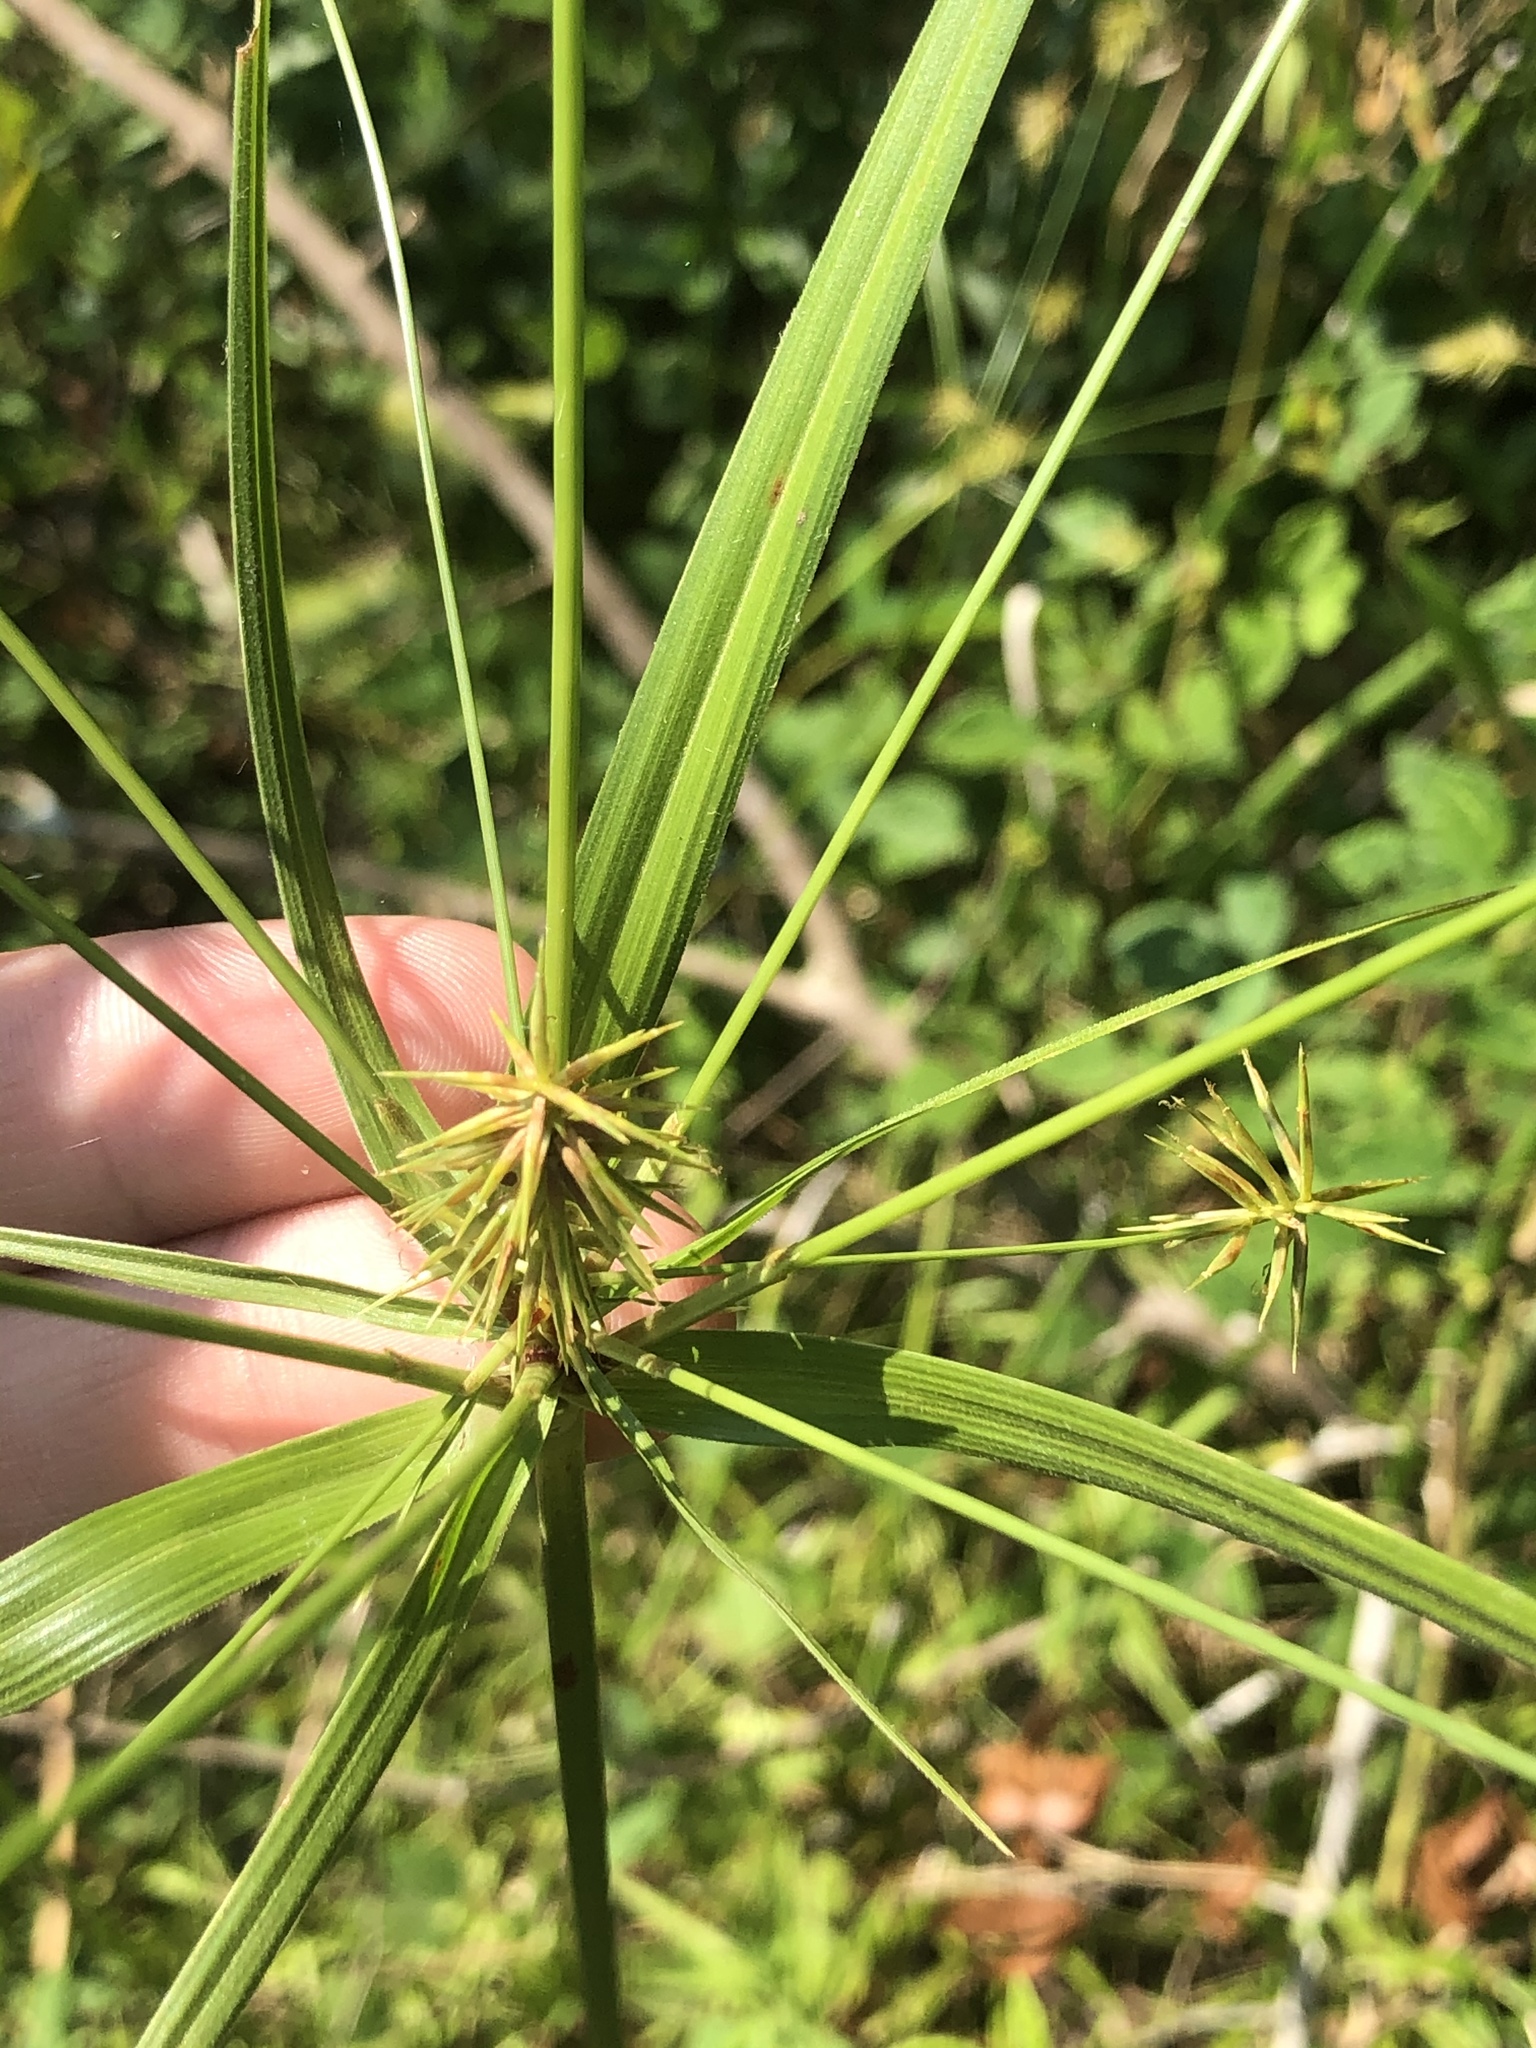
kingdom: Plantae
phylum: Tracheophyta
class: Liliopsida
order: Poales
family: Cyperaceae
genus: Cyperus
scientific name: Cyperus retrofractus
